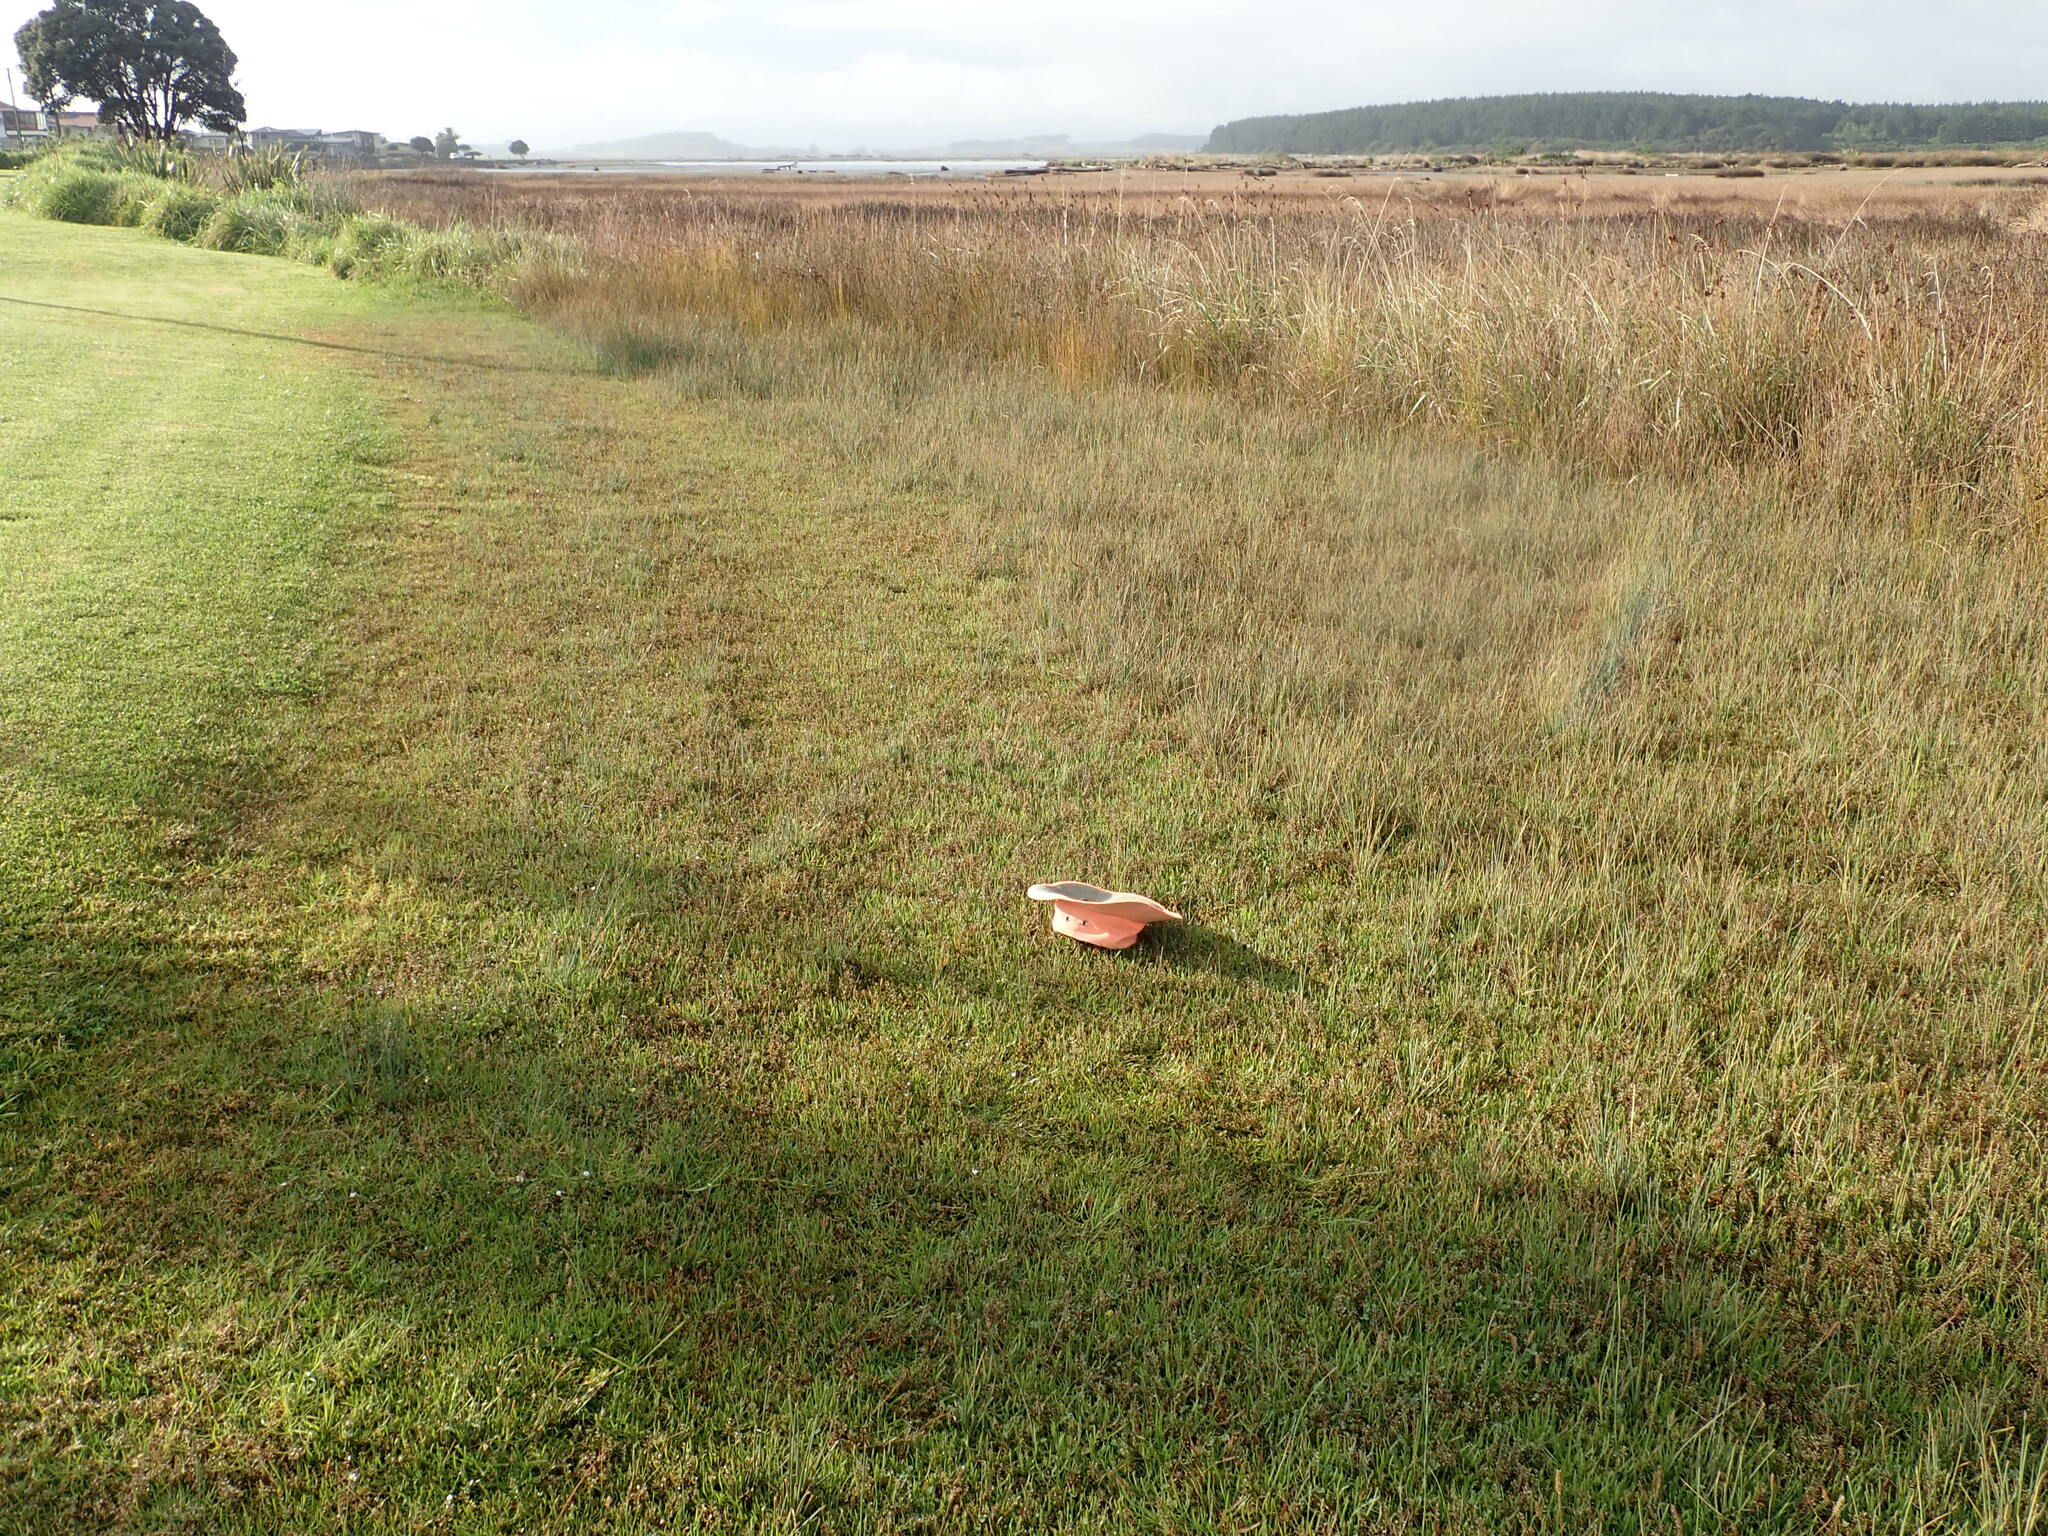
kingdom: Plantae
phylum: Tracheophyta
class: Magnoliopsida
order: Asterales
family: Goodeniaceae
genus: Goodenia
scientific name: Goodenia radicans
